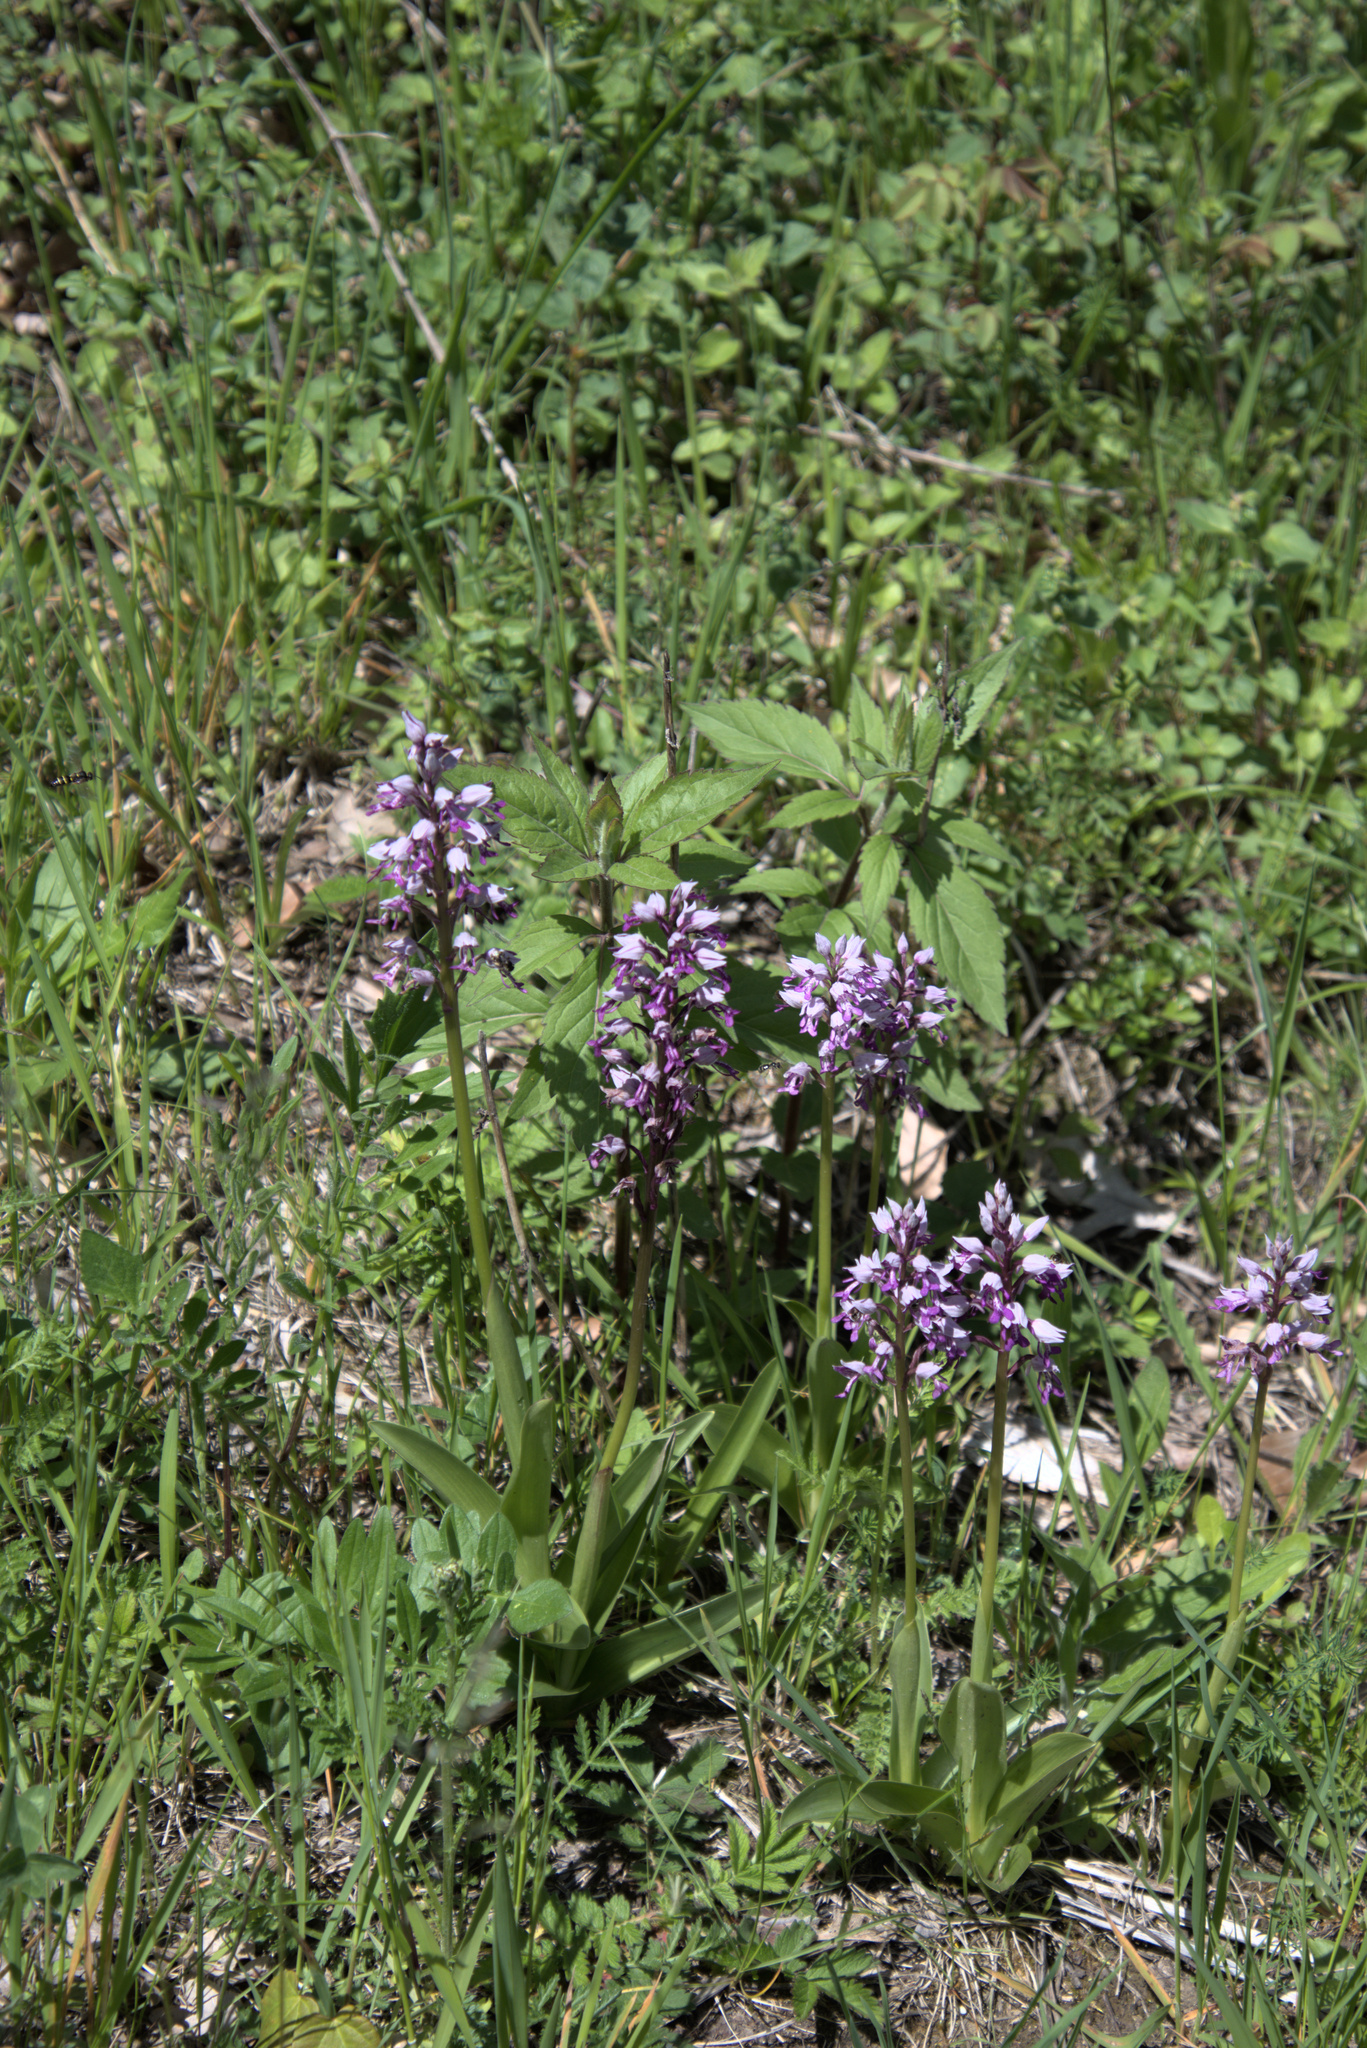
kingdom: Plantae
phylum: Tracheophyta
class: Liliopsida
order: Asparagales
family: Orchidaceae
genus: Orchis
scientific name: Orchis militaris
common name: Military orchid
